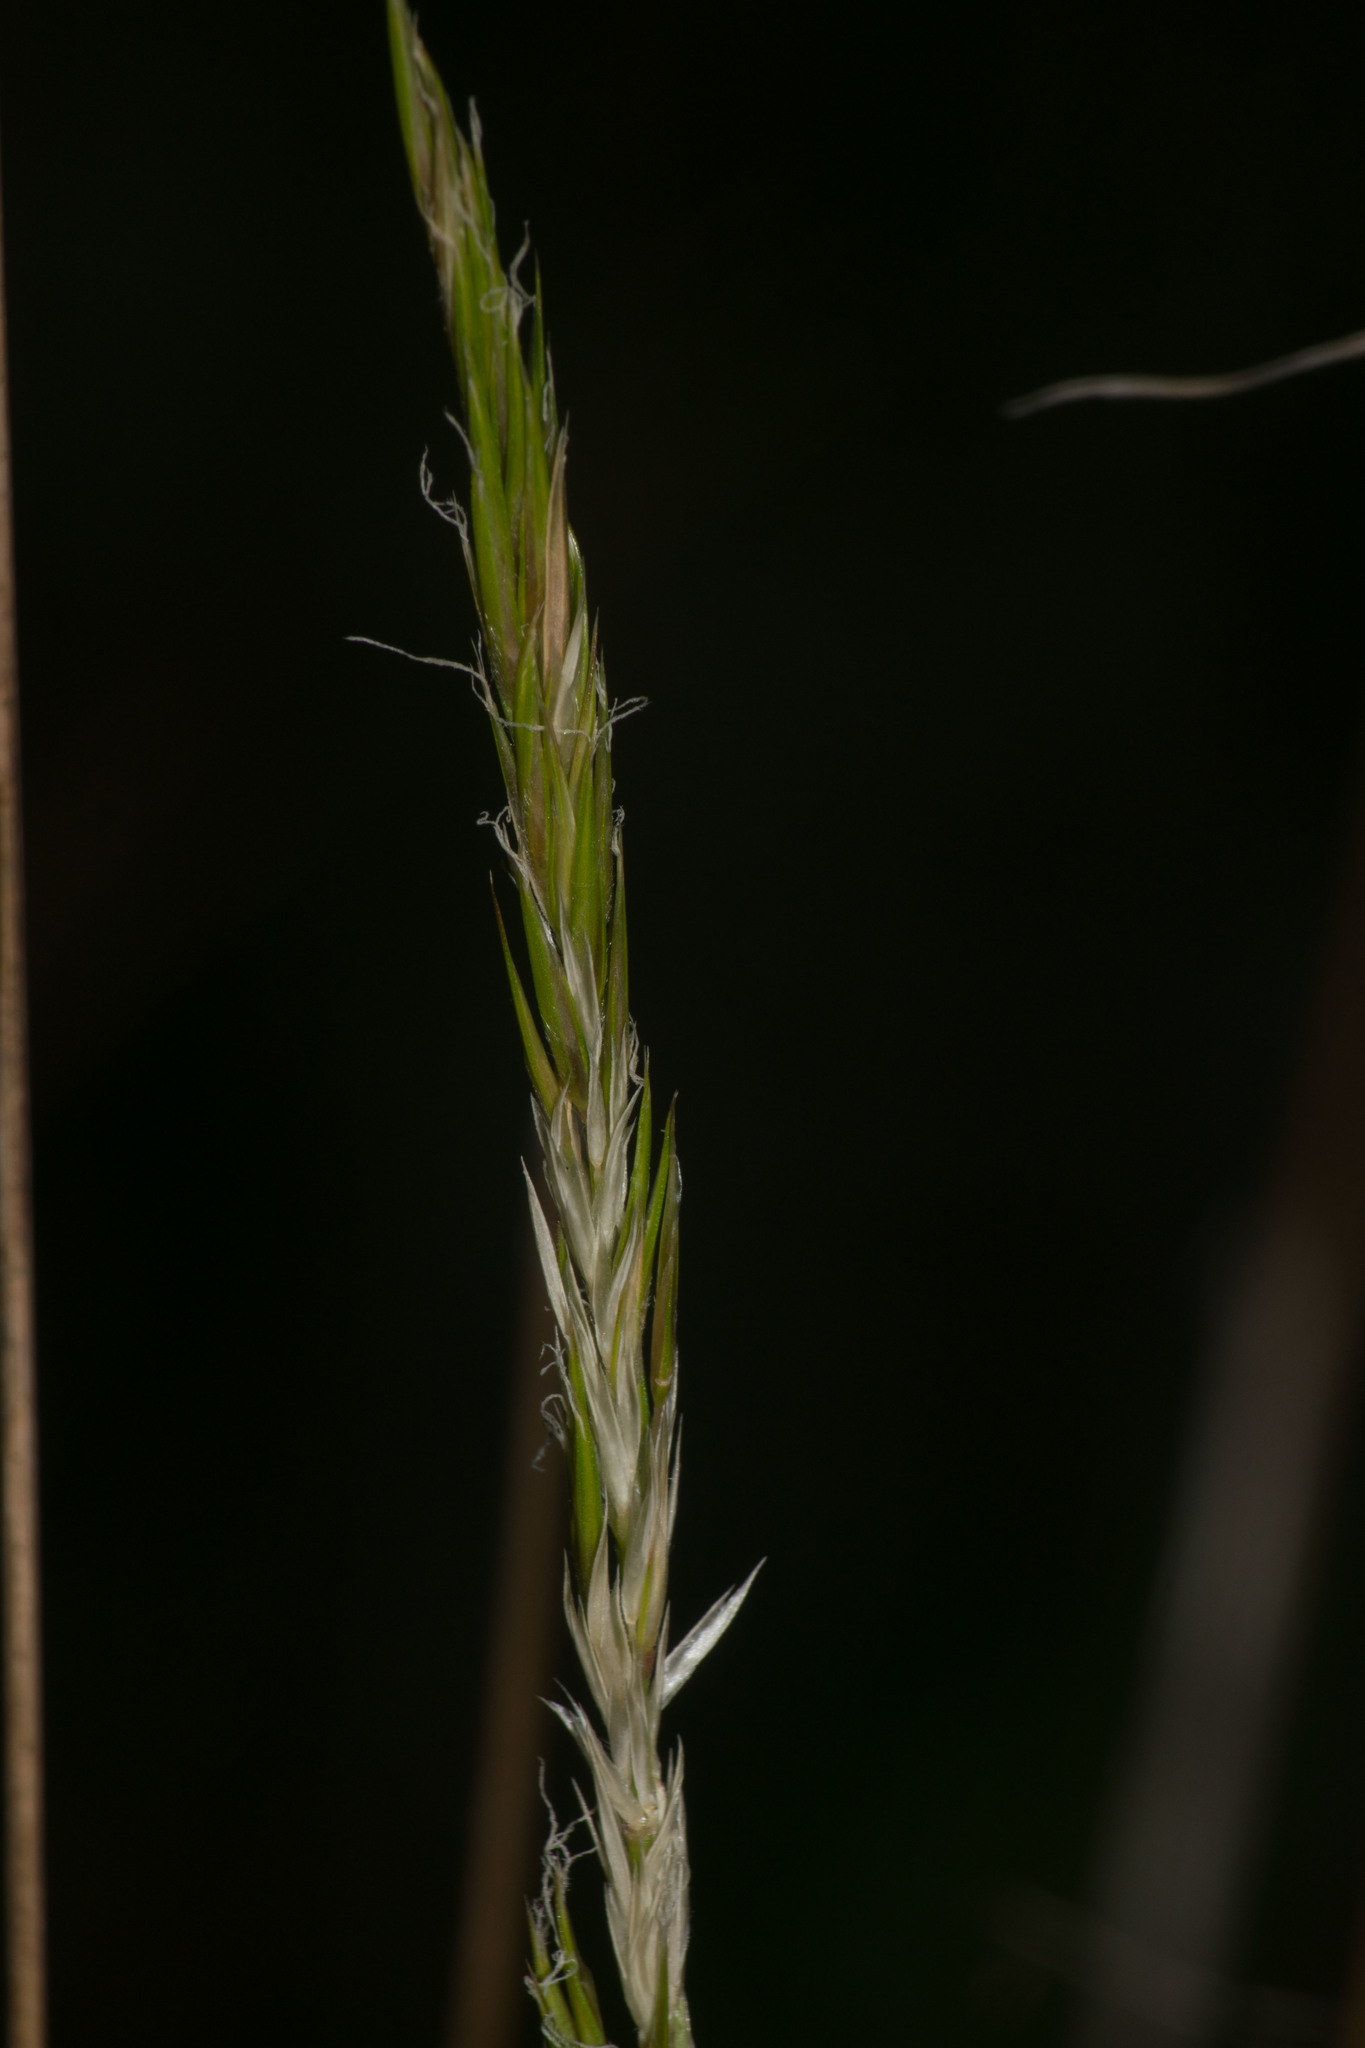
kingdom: Plantae
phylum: Tracheophyta
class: Liliopsida
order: Poales
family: Poaceae
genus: Anthoxanthum
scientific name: Anthoxanthum odoratum
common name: Sweet vernalgrass
